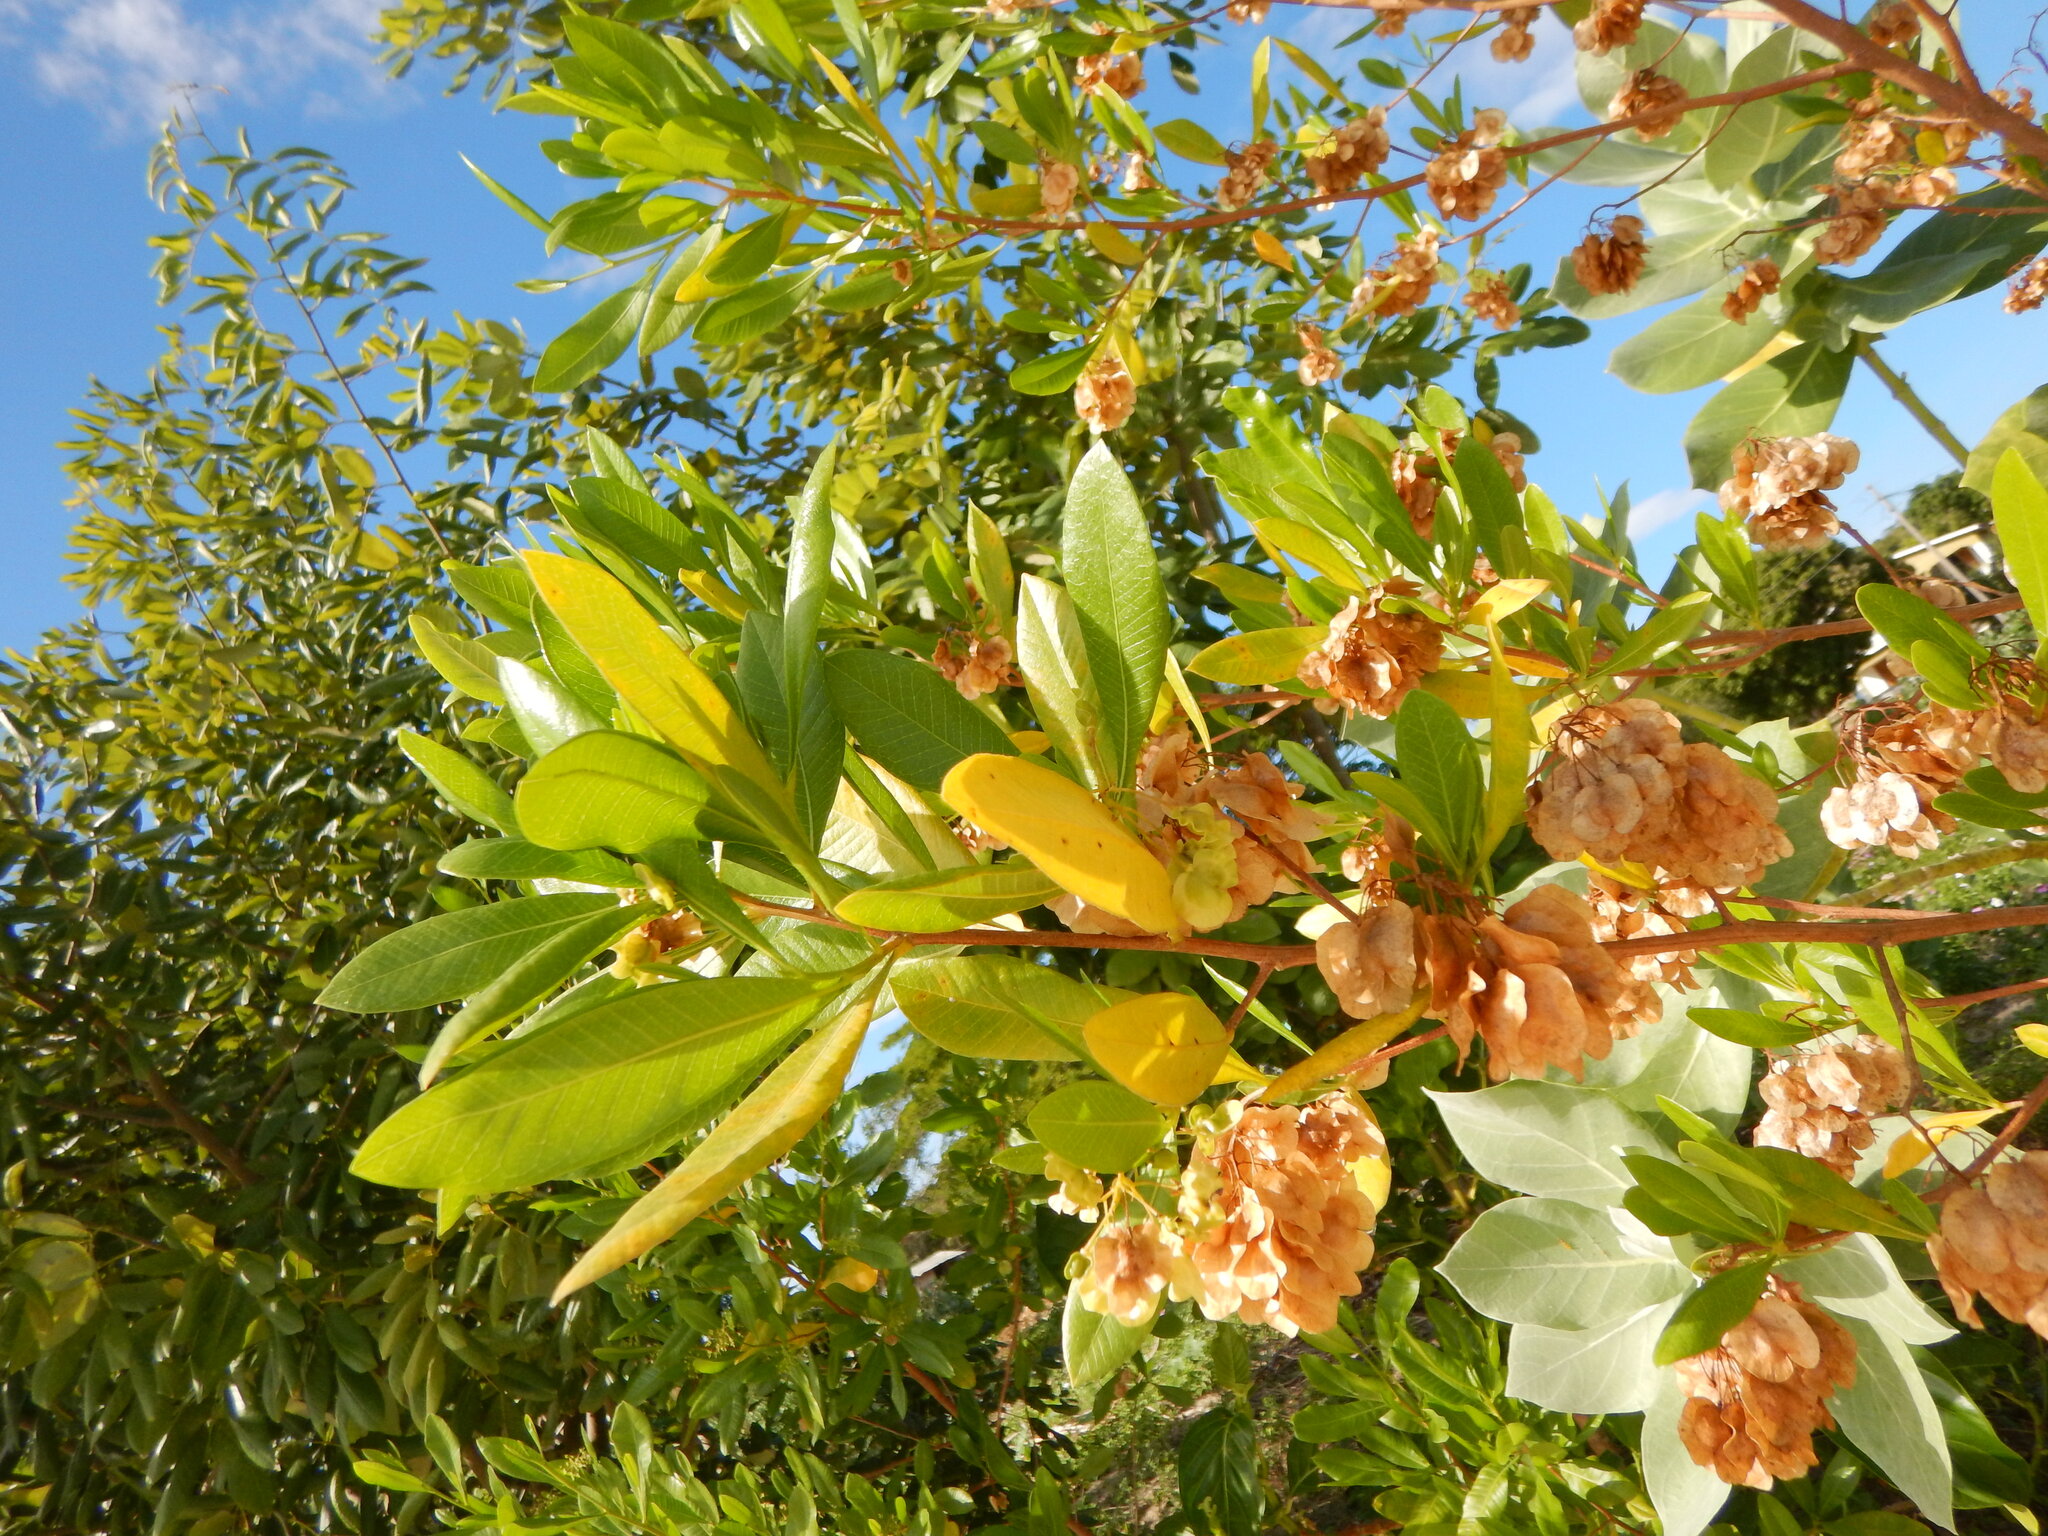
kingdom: Plantae
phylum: Tracheophyta
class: Magnoliopsida
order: Sapindales
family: Sapindaceae
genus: Dodonaea
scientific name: Dodonaea viscosa
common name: Hopbush
